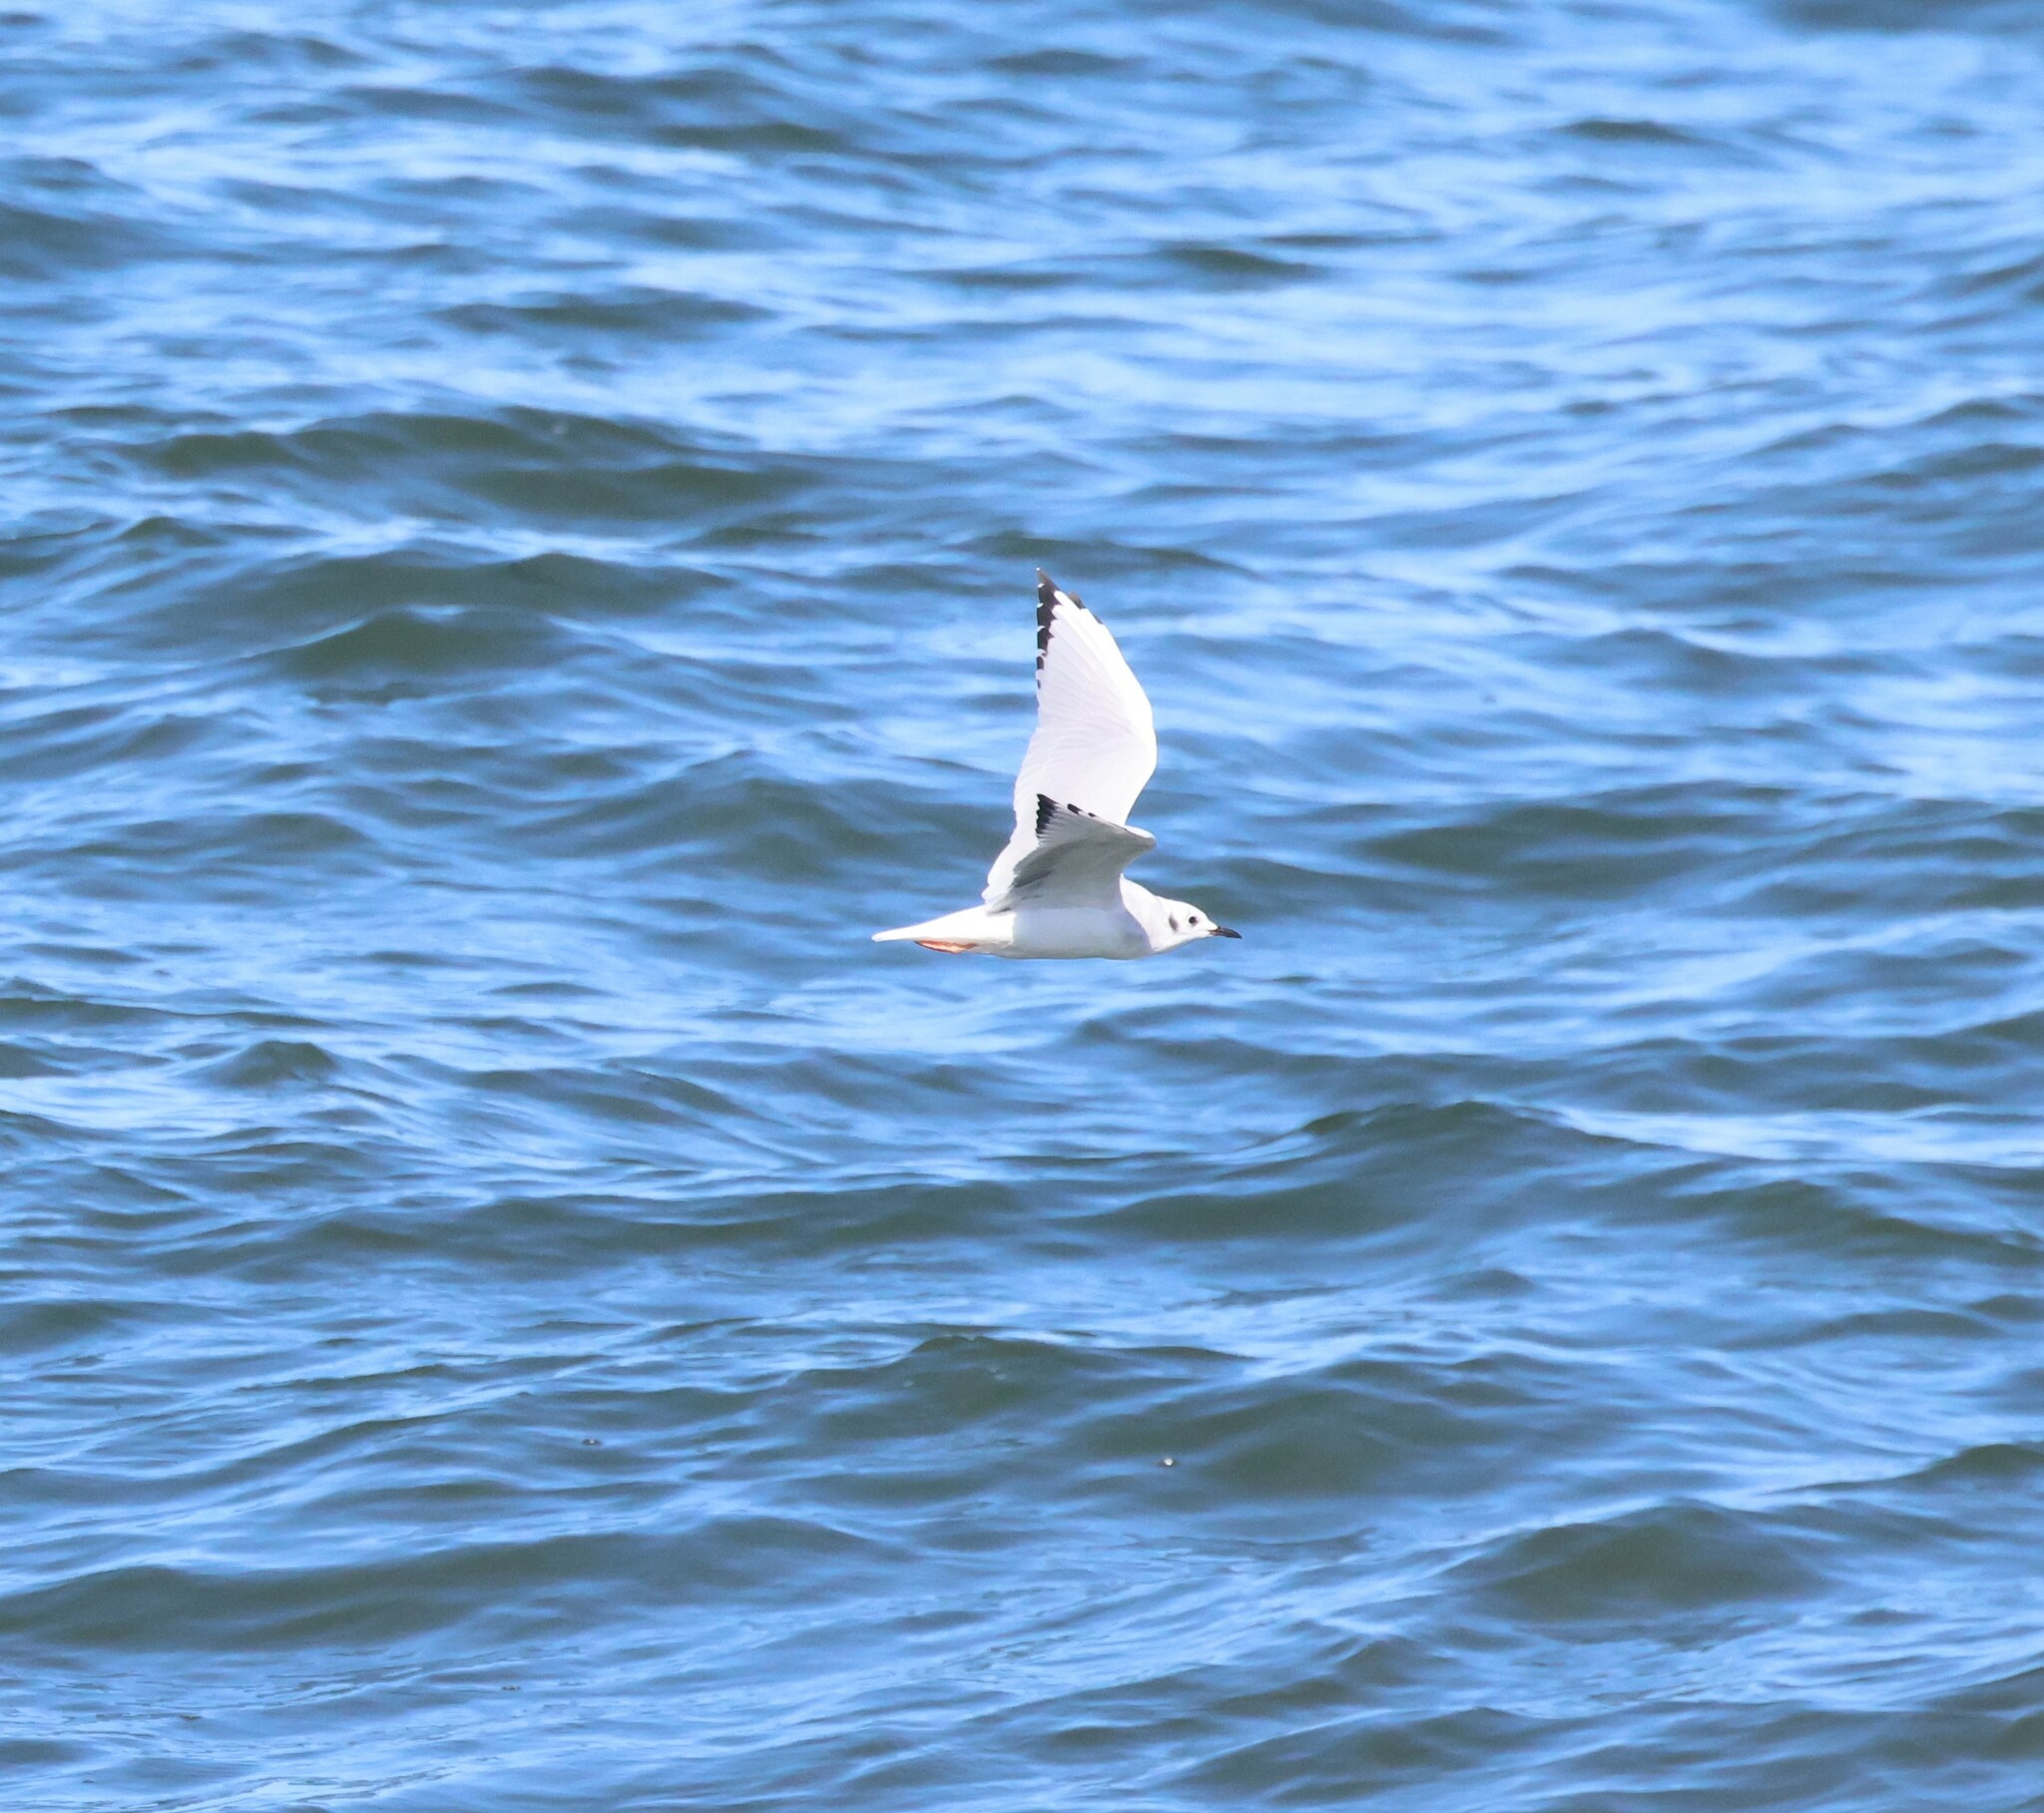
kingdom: Animalia
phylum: Chordata
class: Aves
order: Charadriiformes
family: Laridae
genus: Chroicocephalus
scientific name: Chroicocephalus philadelphia
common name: Bonaparte's gull
